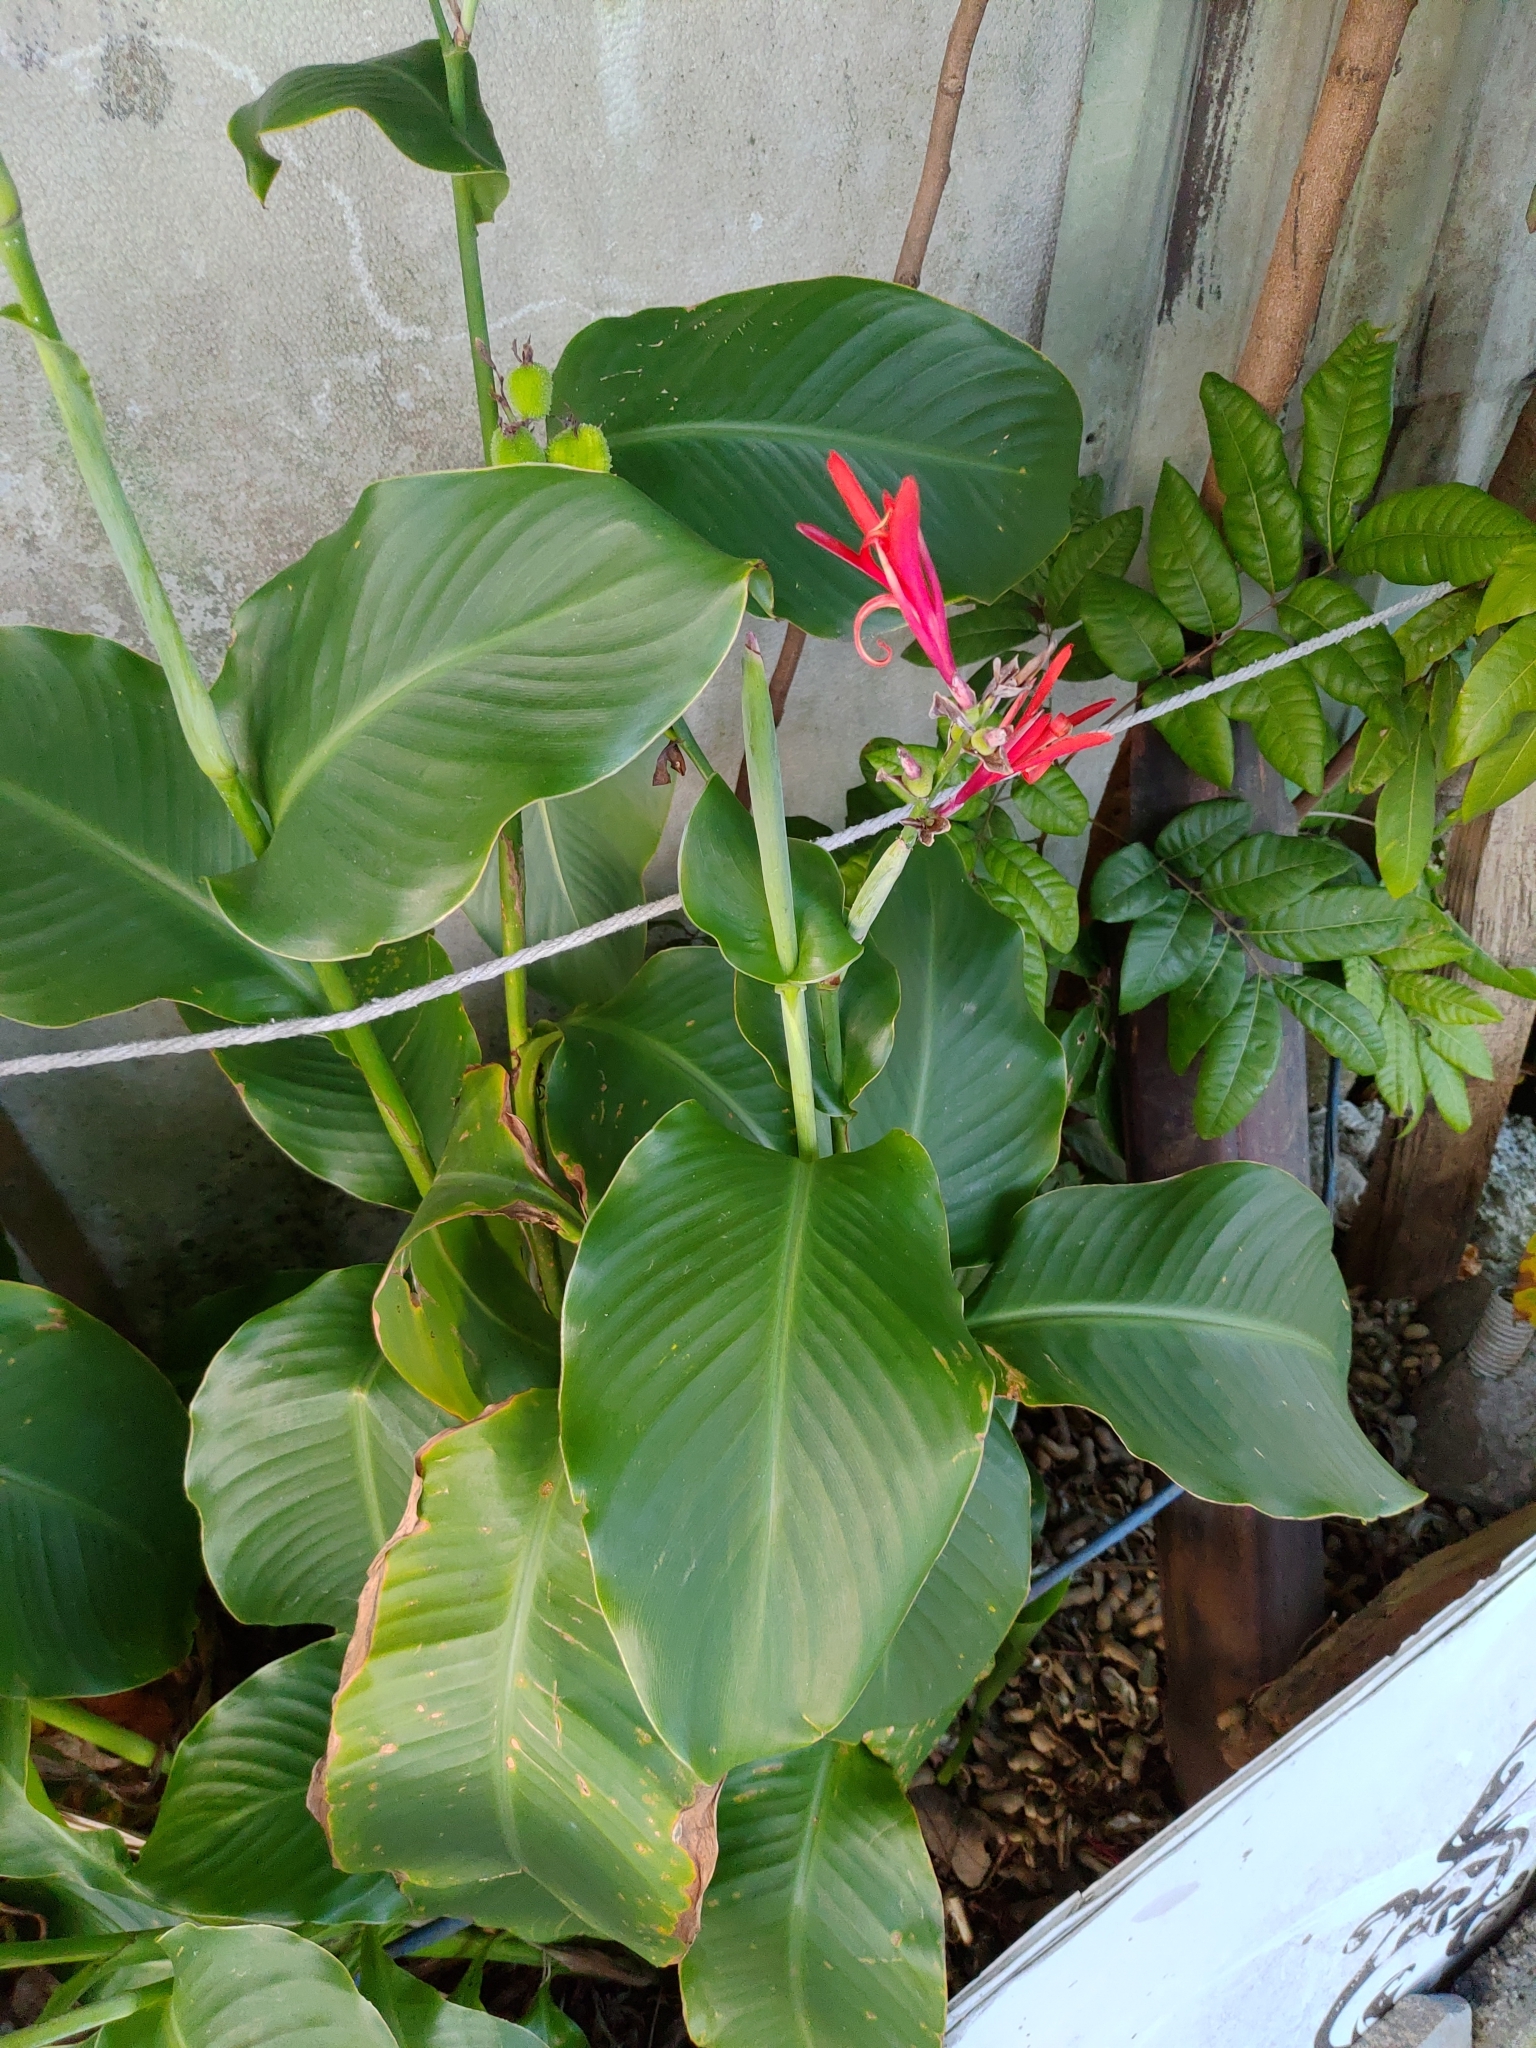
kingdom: Plantae
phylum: Tracheophyta
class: Liliopsida
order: Zingiberales
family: Cannaceae
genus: Canna
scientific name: Canna indica
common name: Indian shot
